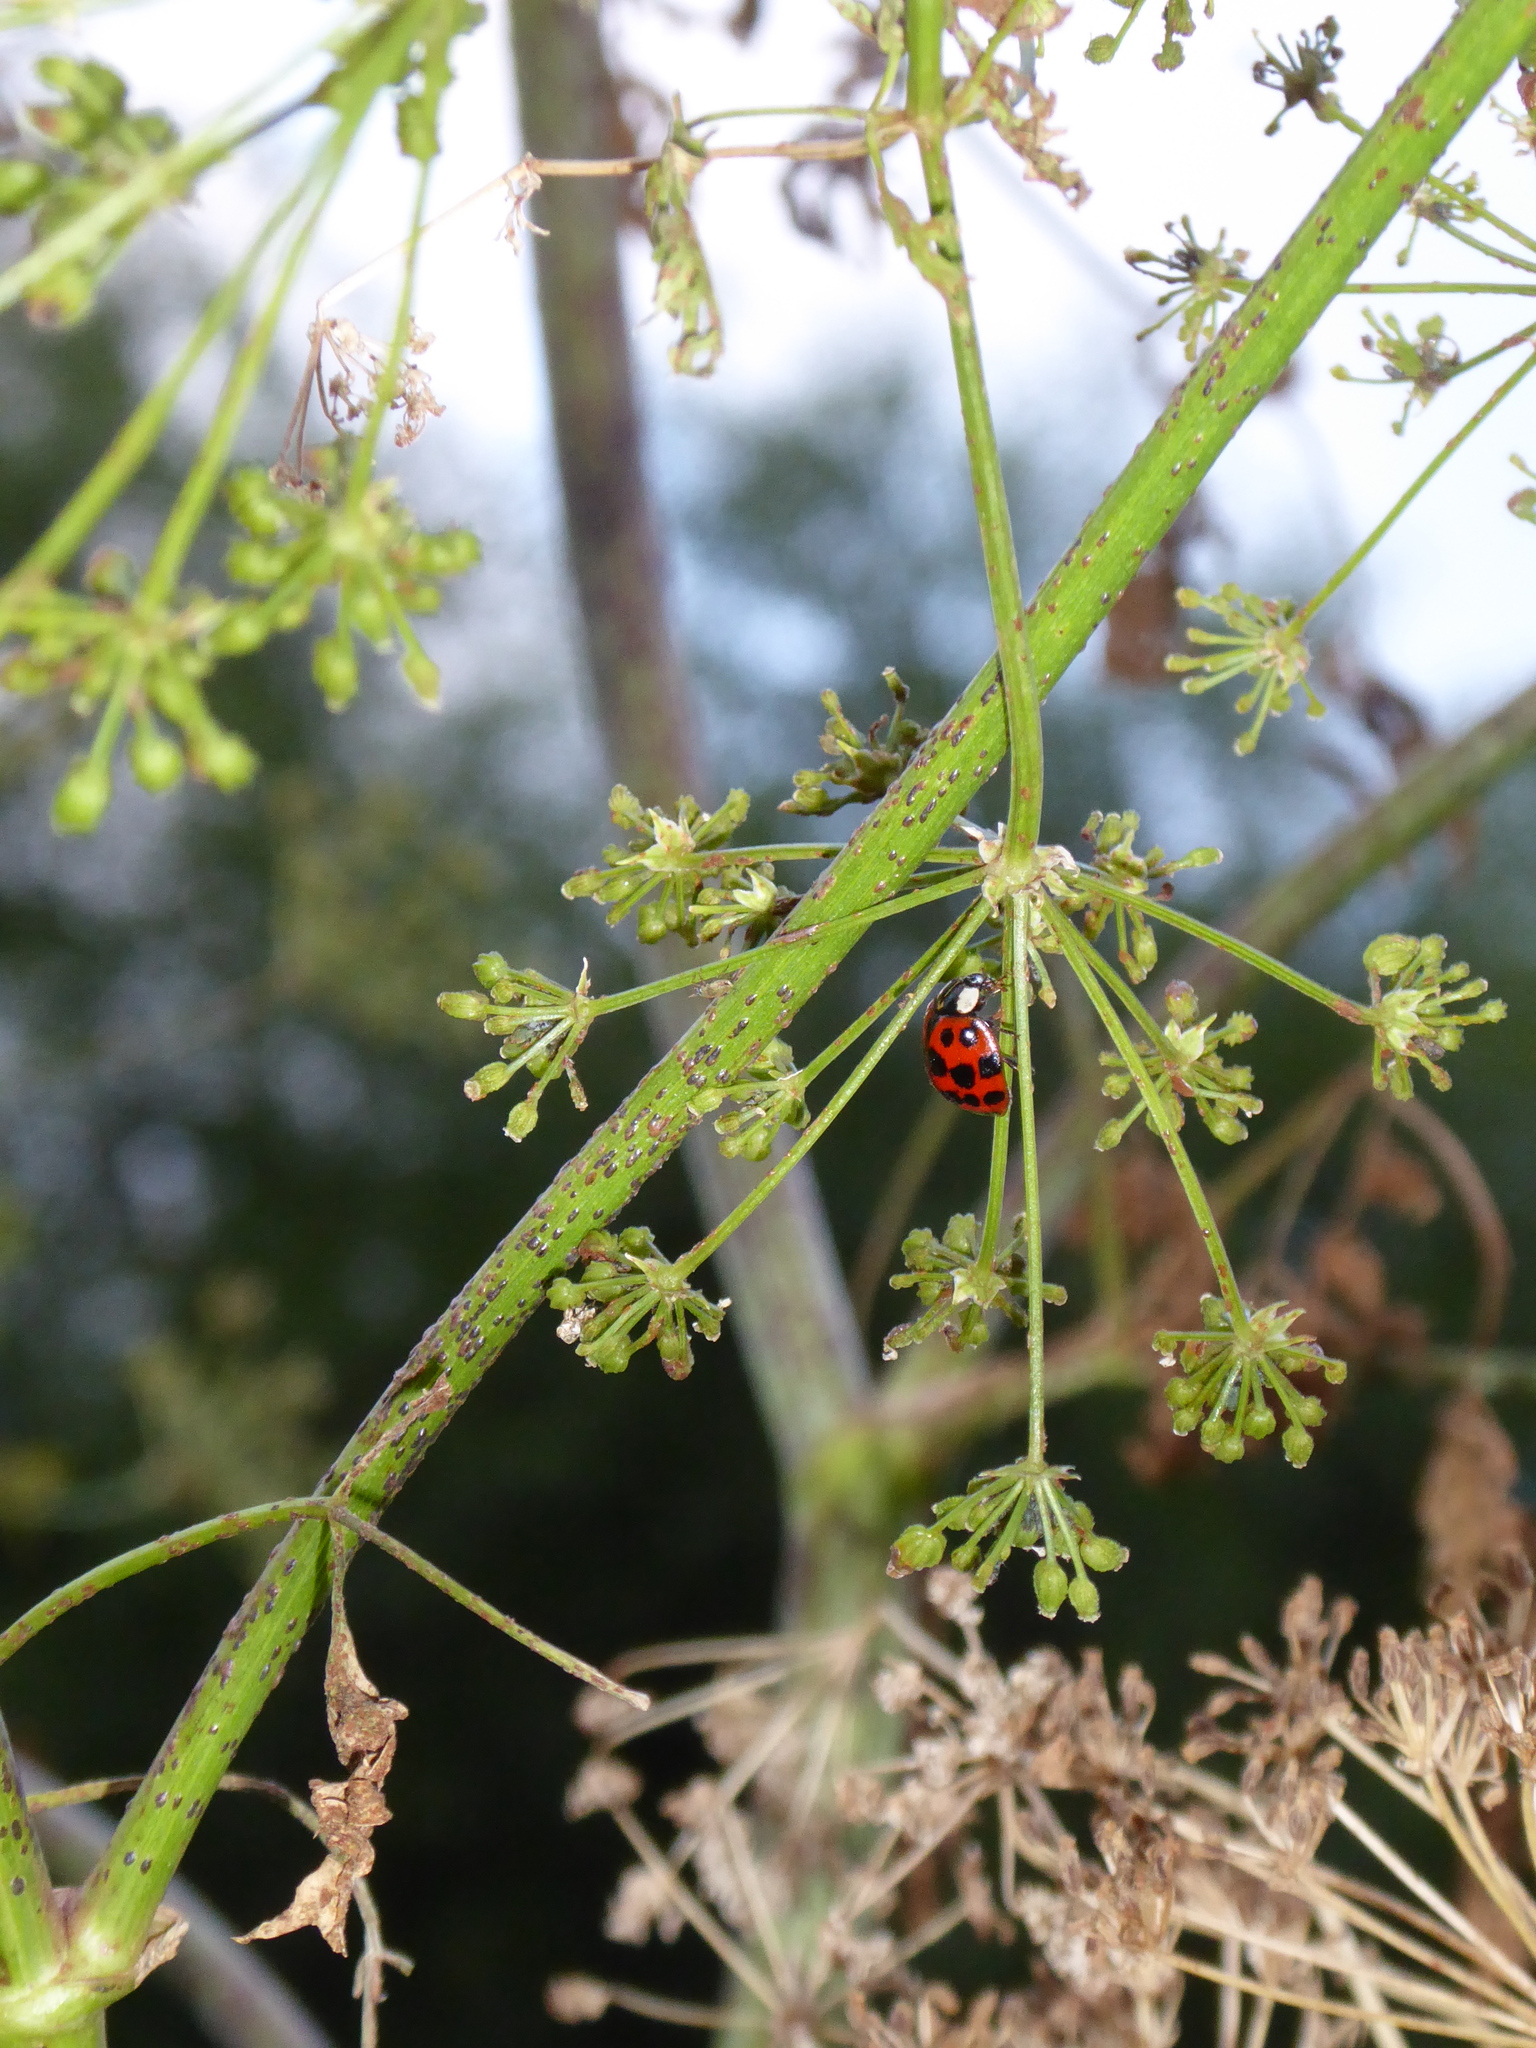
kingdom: Animalia
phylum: Arthropoda
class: Insecta
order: Coleoptera
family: Coccinellidae
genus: Harmonia
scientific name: Harmonia axyridis
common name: Harlequin ladybird
